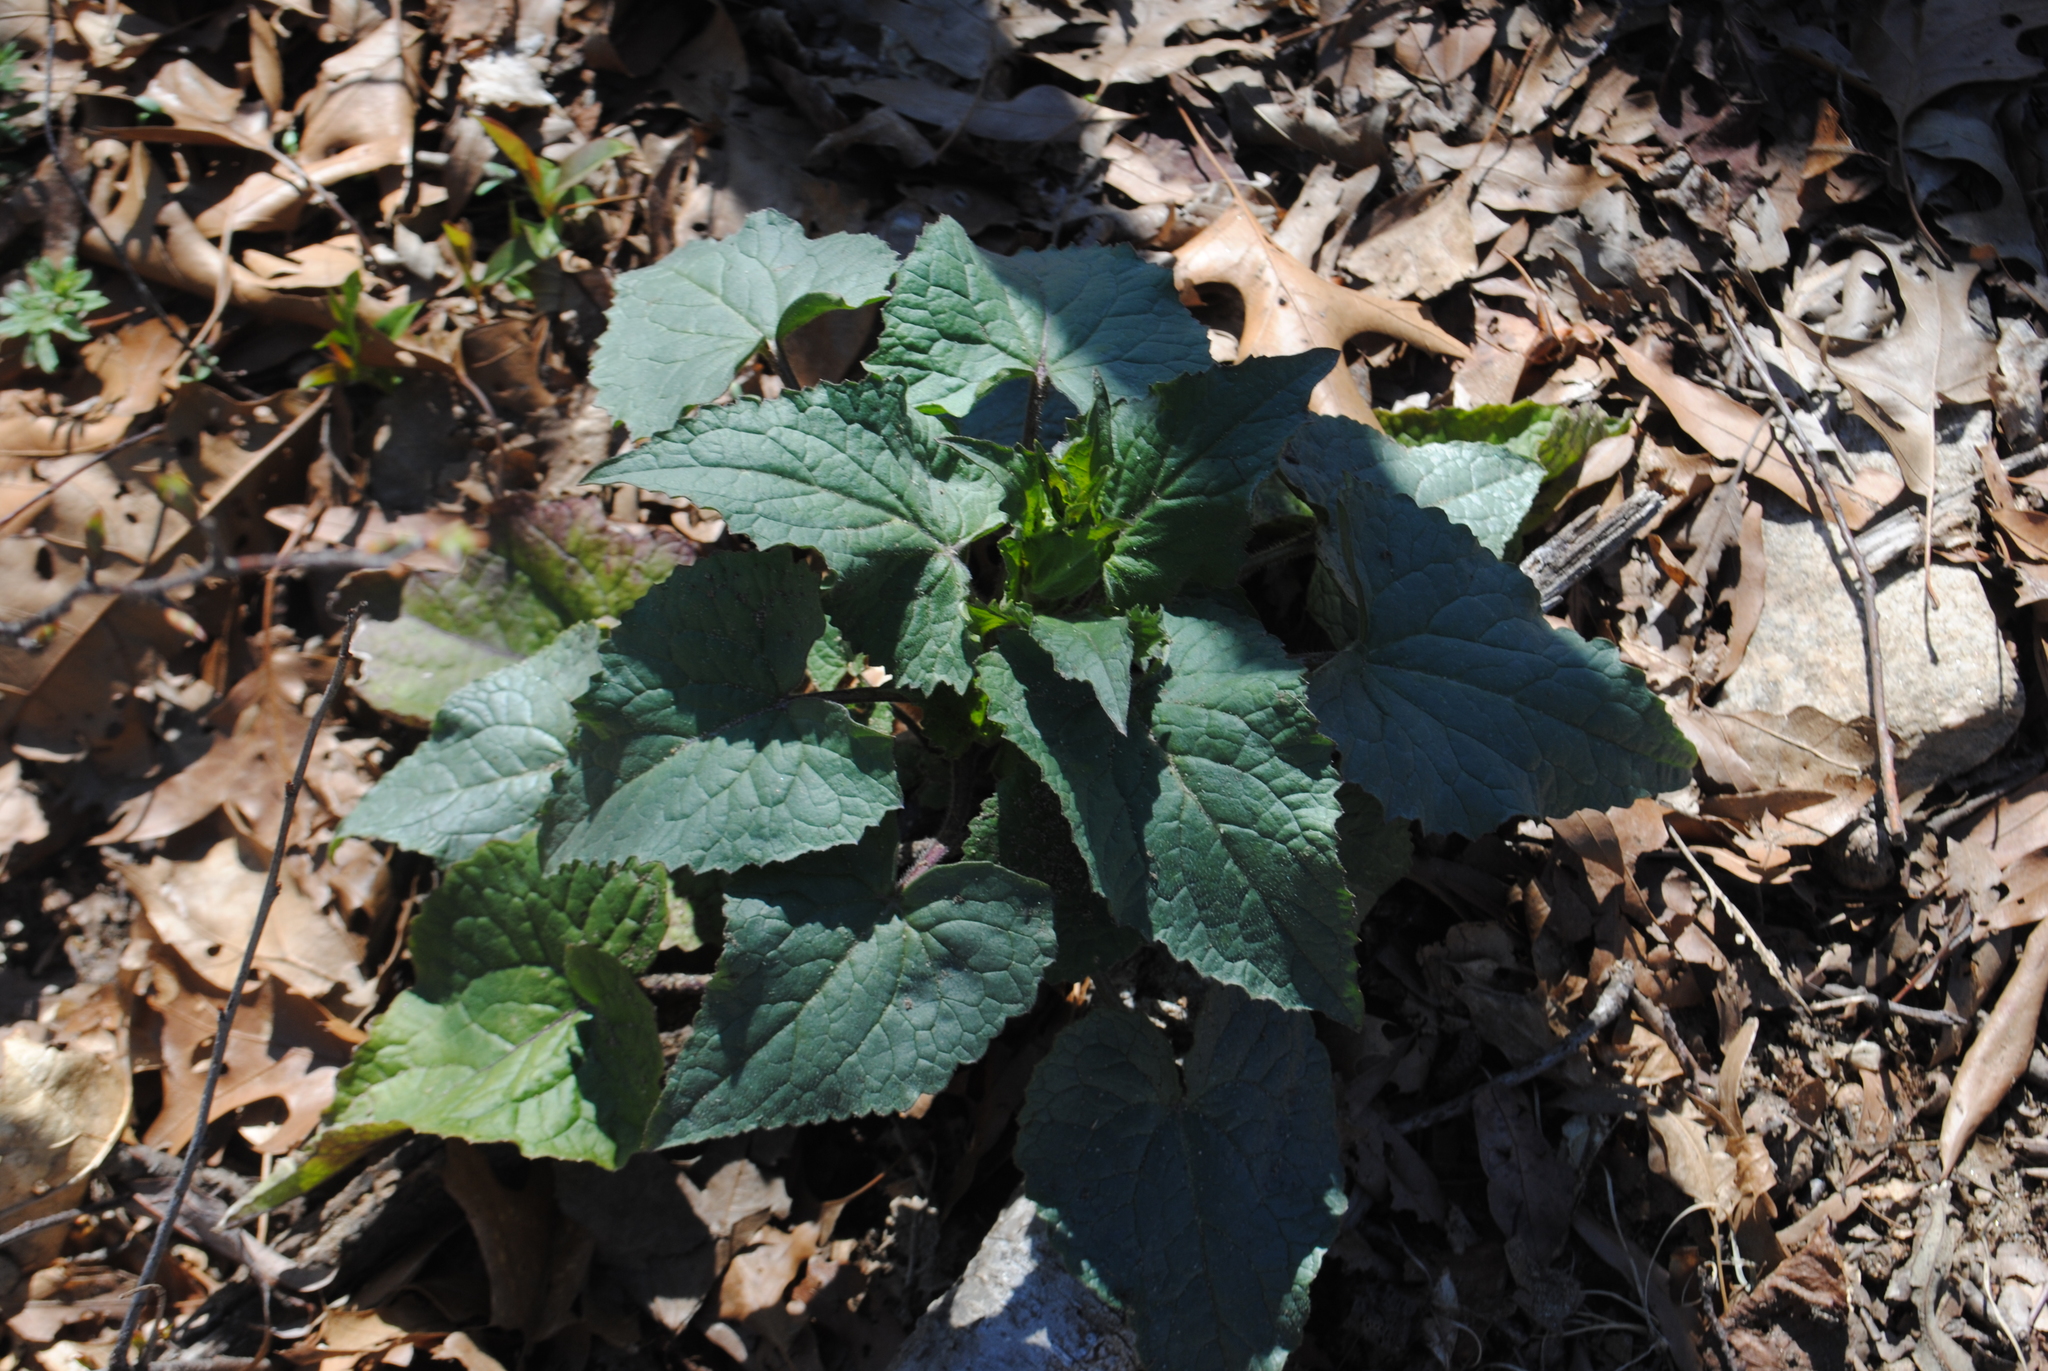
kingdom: Plantae
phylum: Tracheophyta
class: Magnoliopsida
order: Brassicales
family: Brassicaceae
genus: Lunaria
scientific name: Lunaria annua
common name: Honesty
